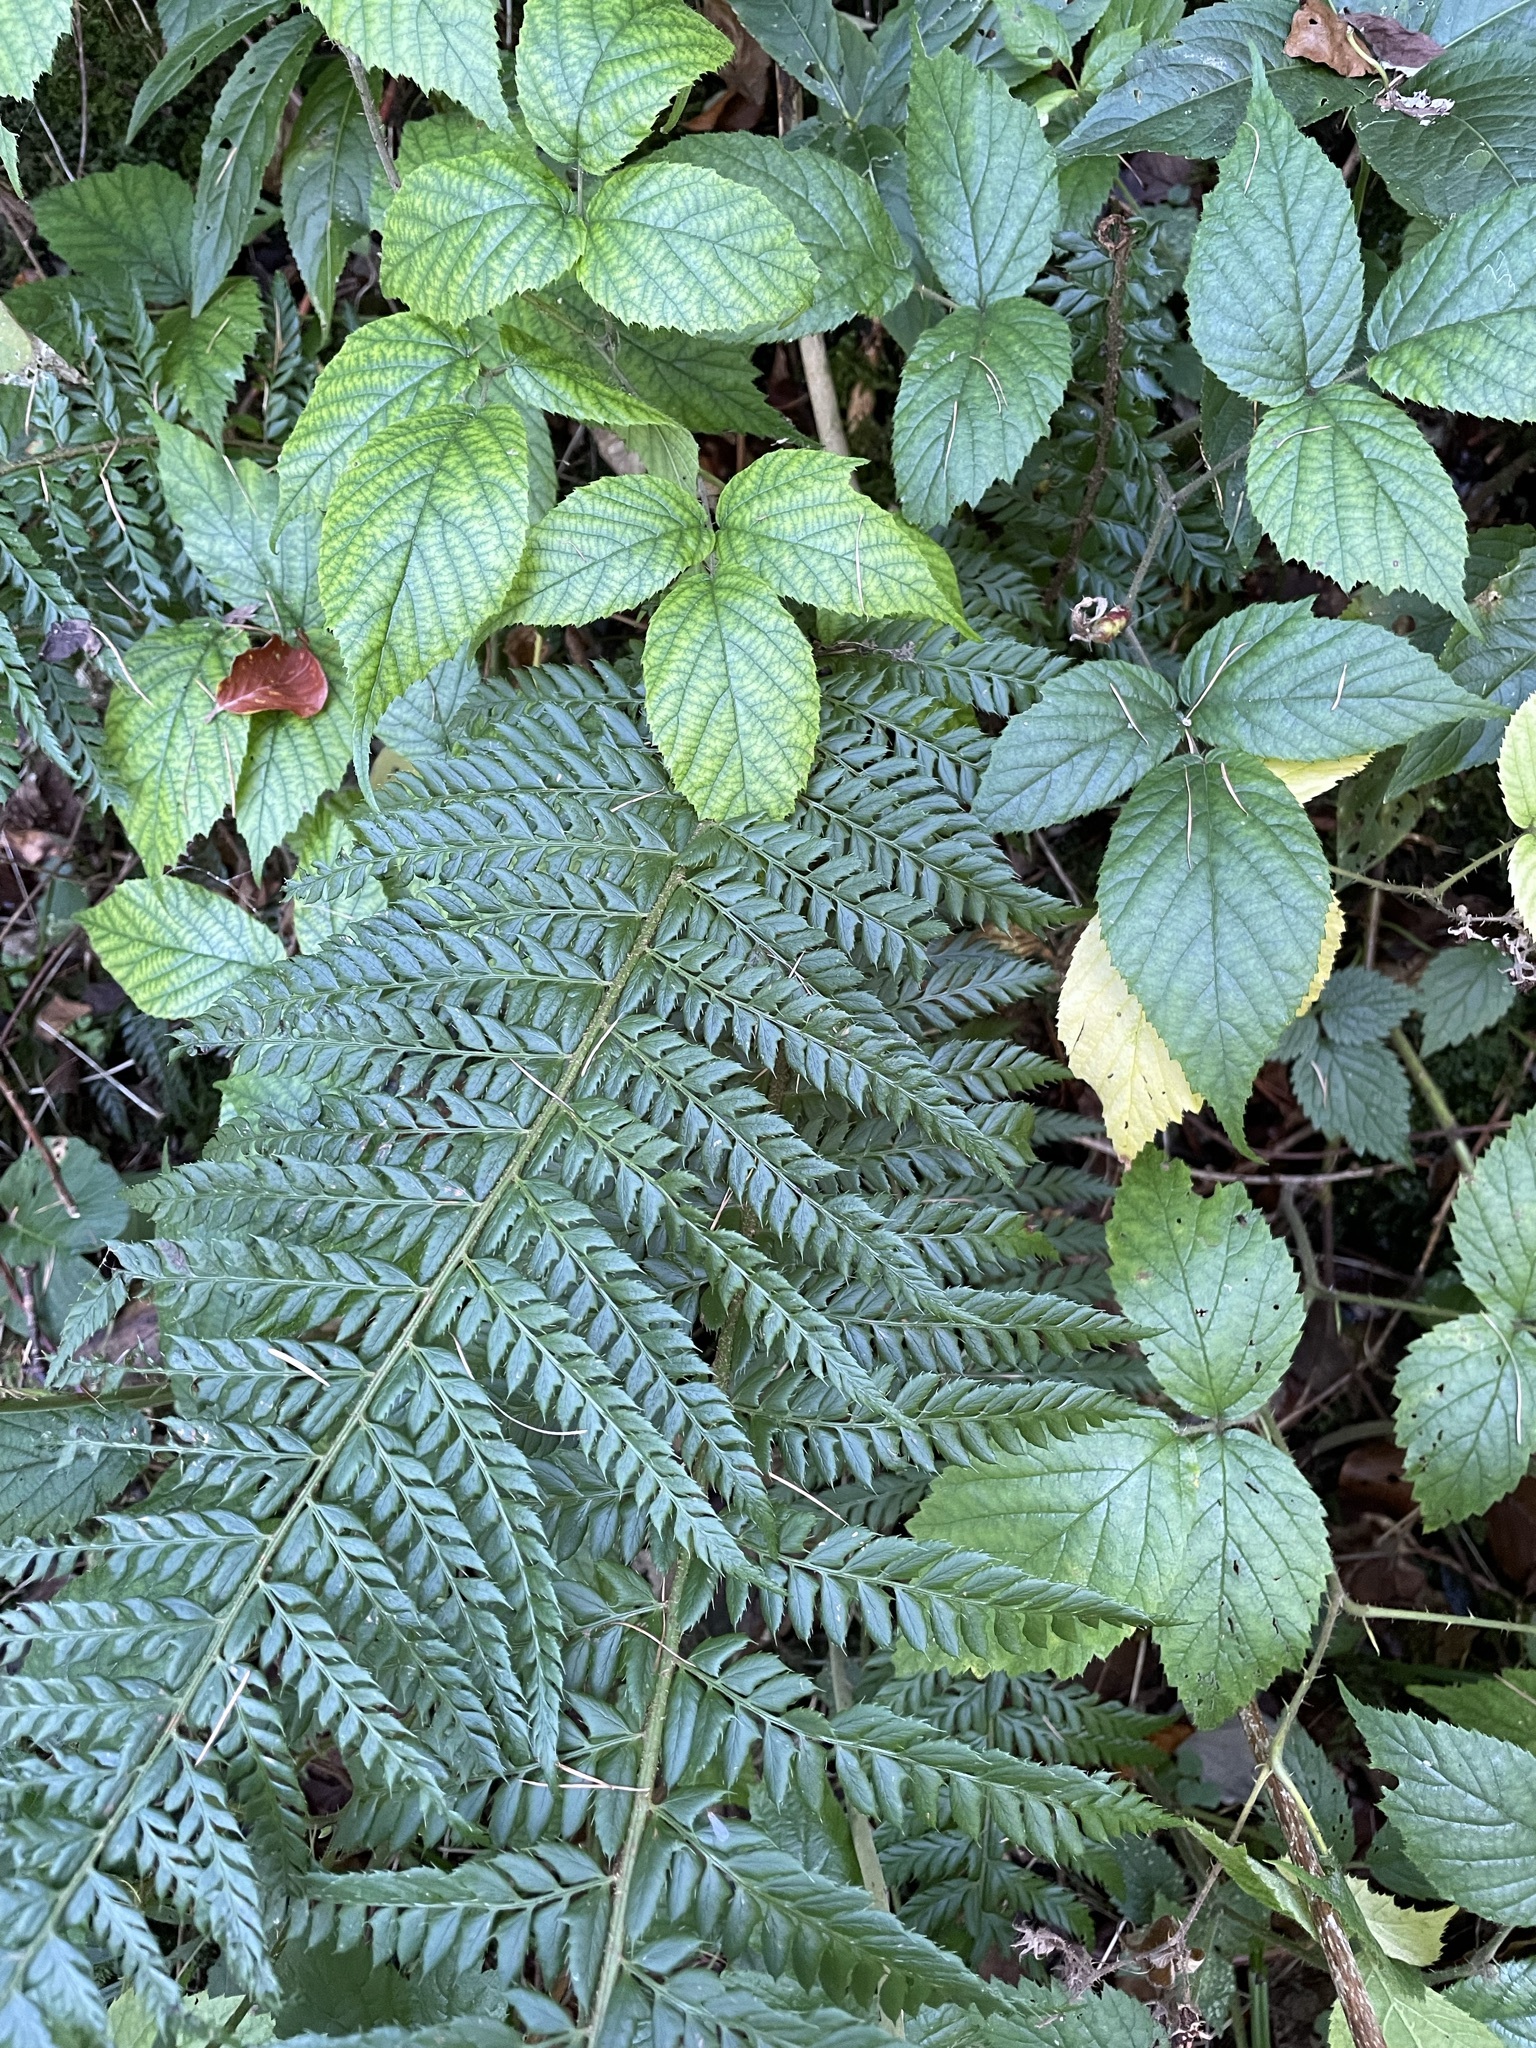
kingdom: Plantae
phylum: Tracheophyta
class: Polypodiopsida
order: Polypodiales
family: Dryopteridaceae
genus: Polystichum
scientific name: Polystichum aculeatum
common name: Hard shield-fern
